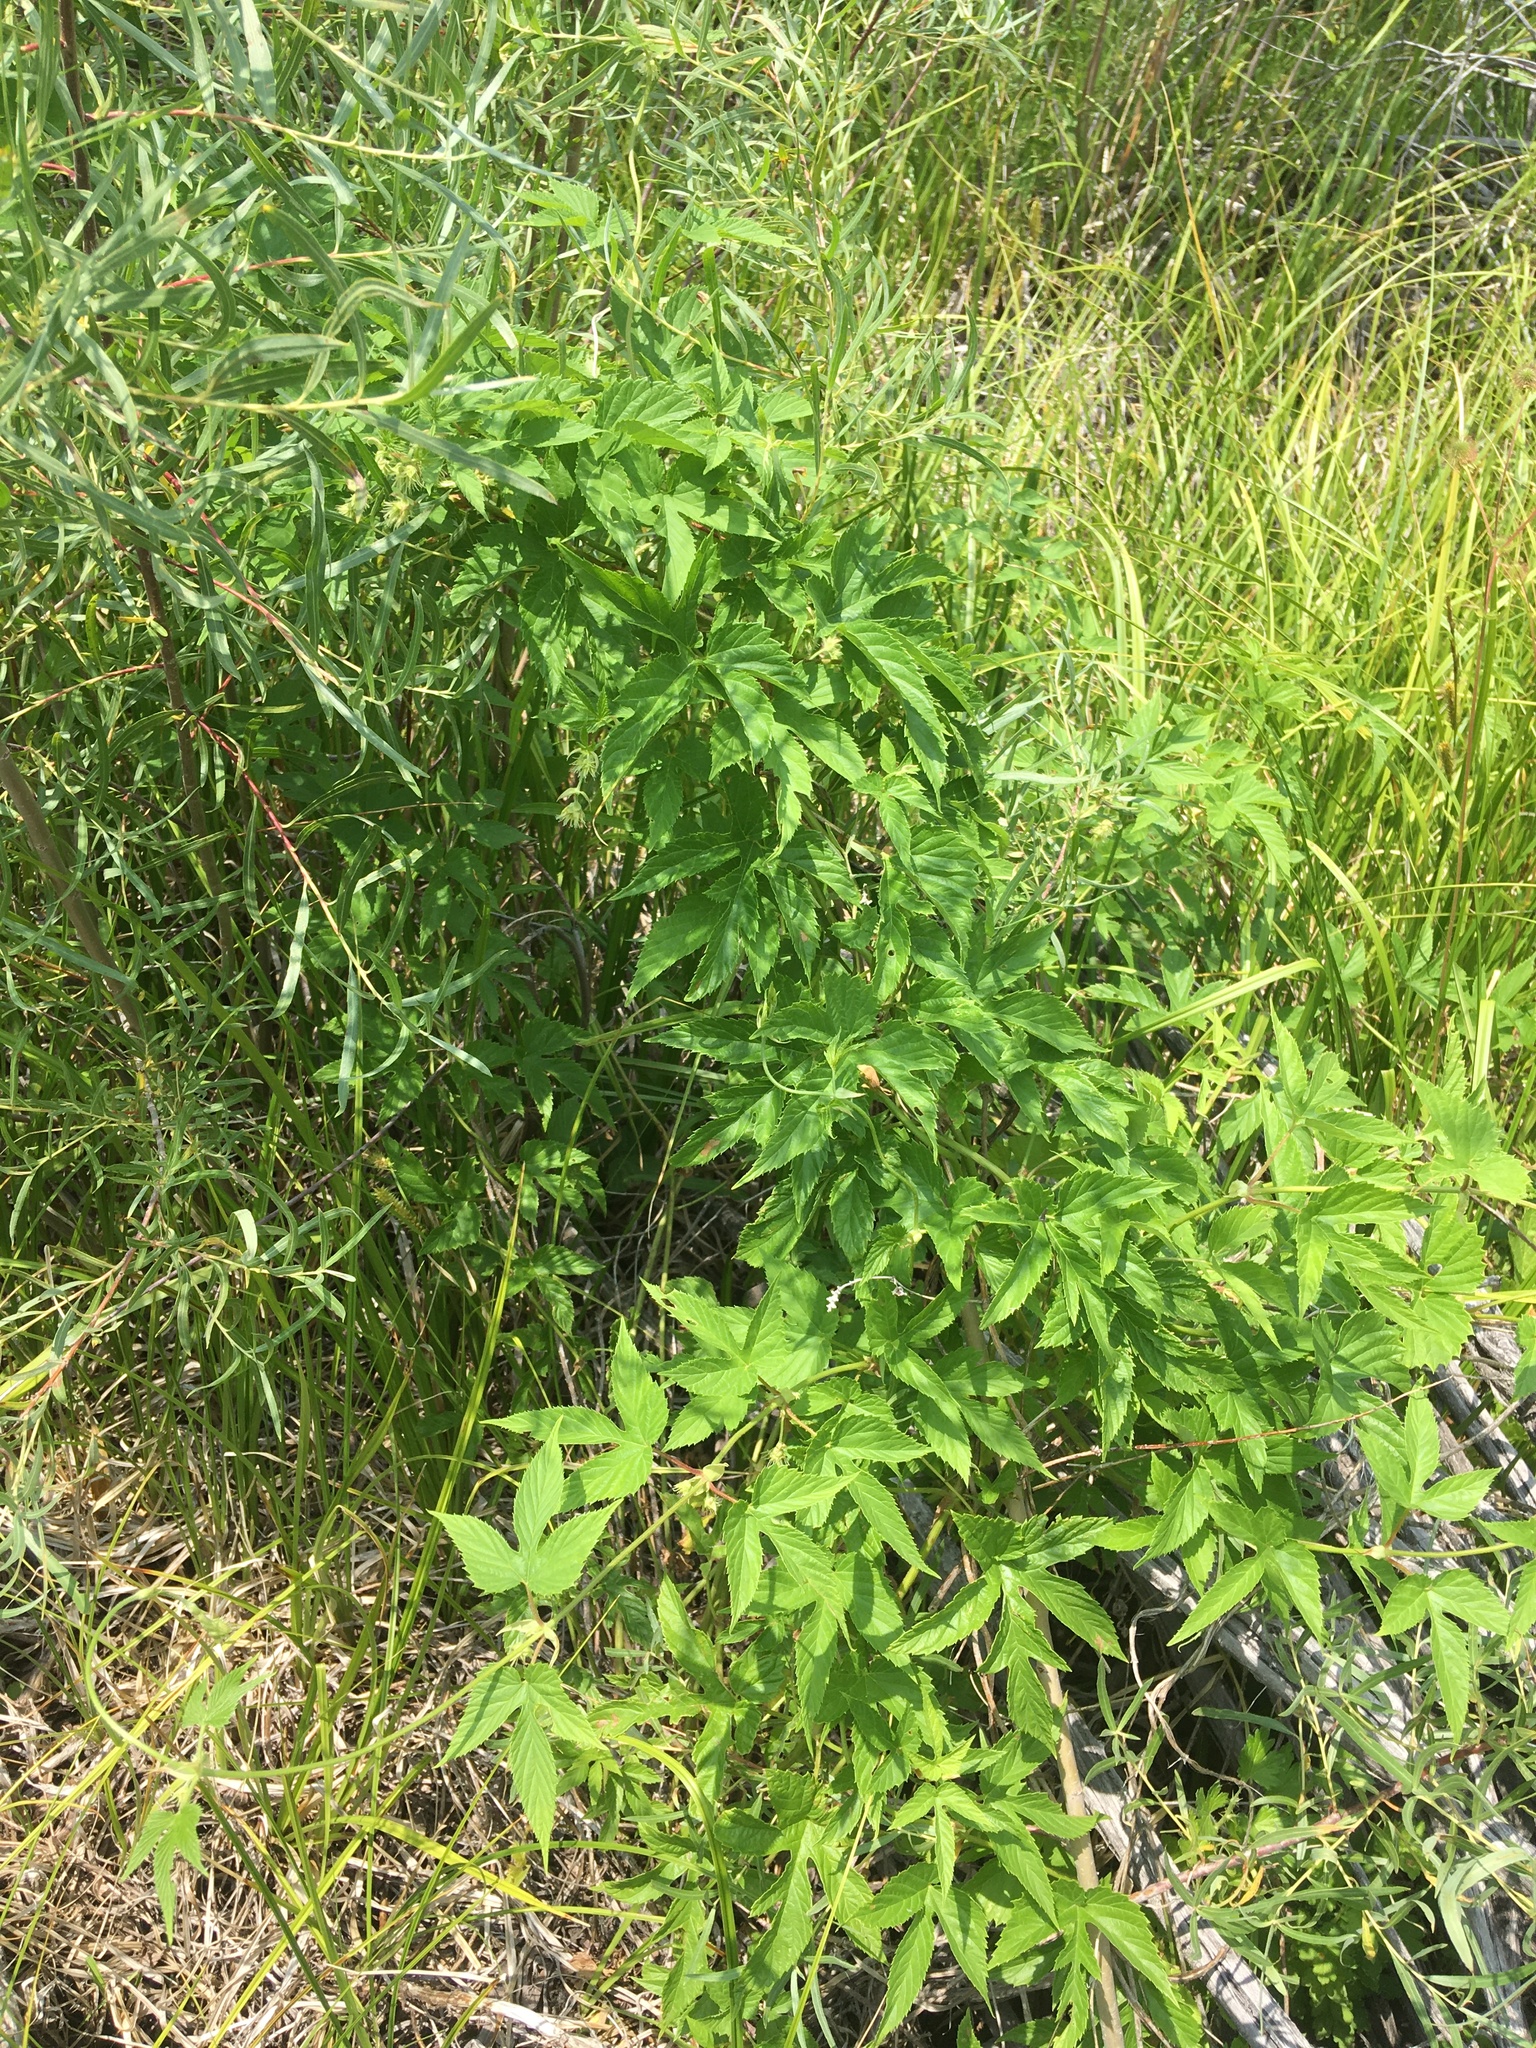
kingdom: Plantae
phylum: Tracheophyta
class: Magnoliopsida
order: Rosales
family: Cannabaceae
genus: Humulus
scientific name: Humulus lupulus
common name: Hop
